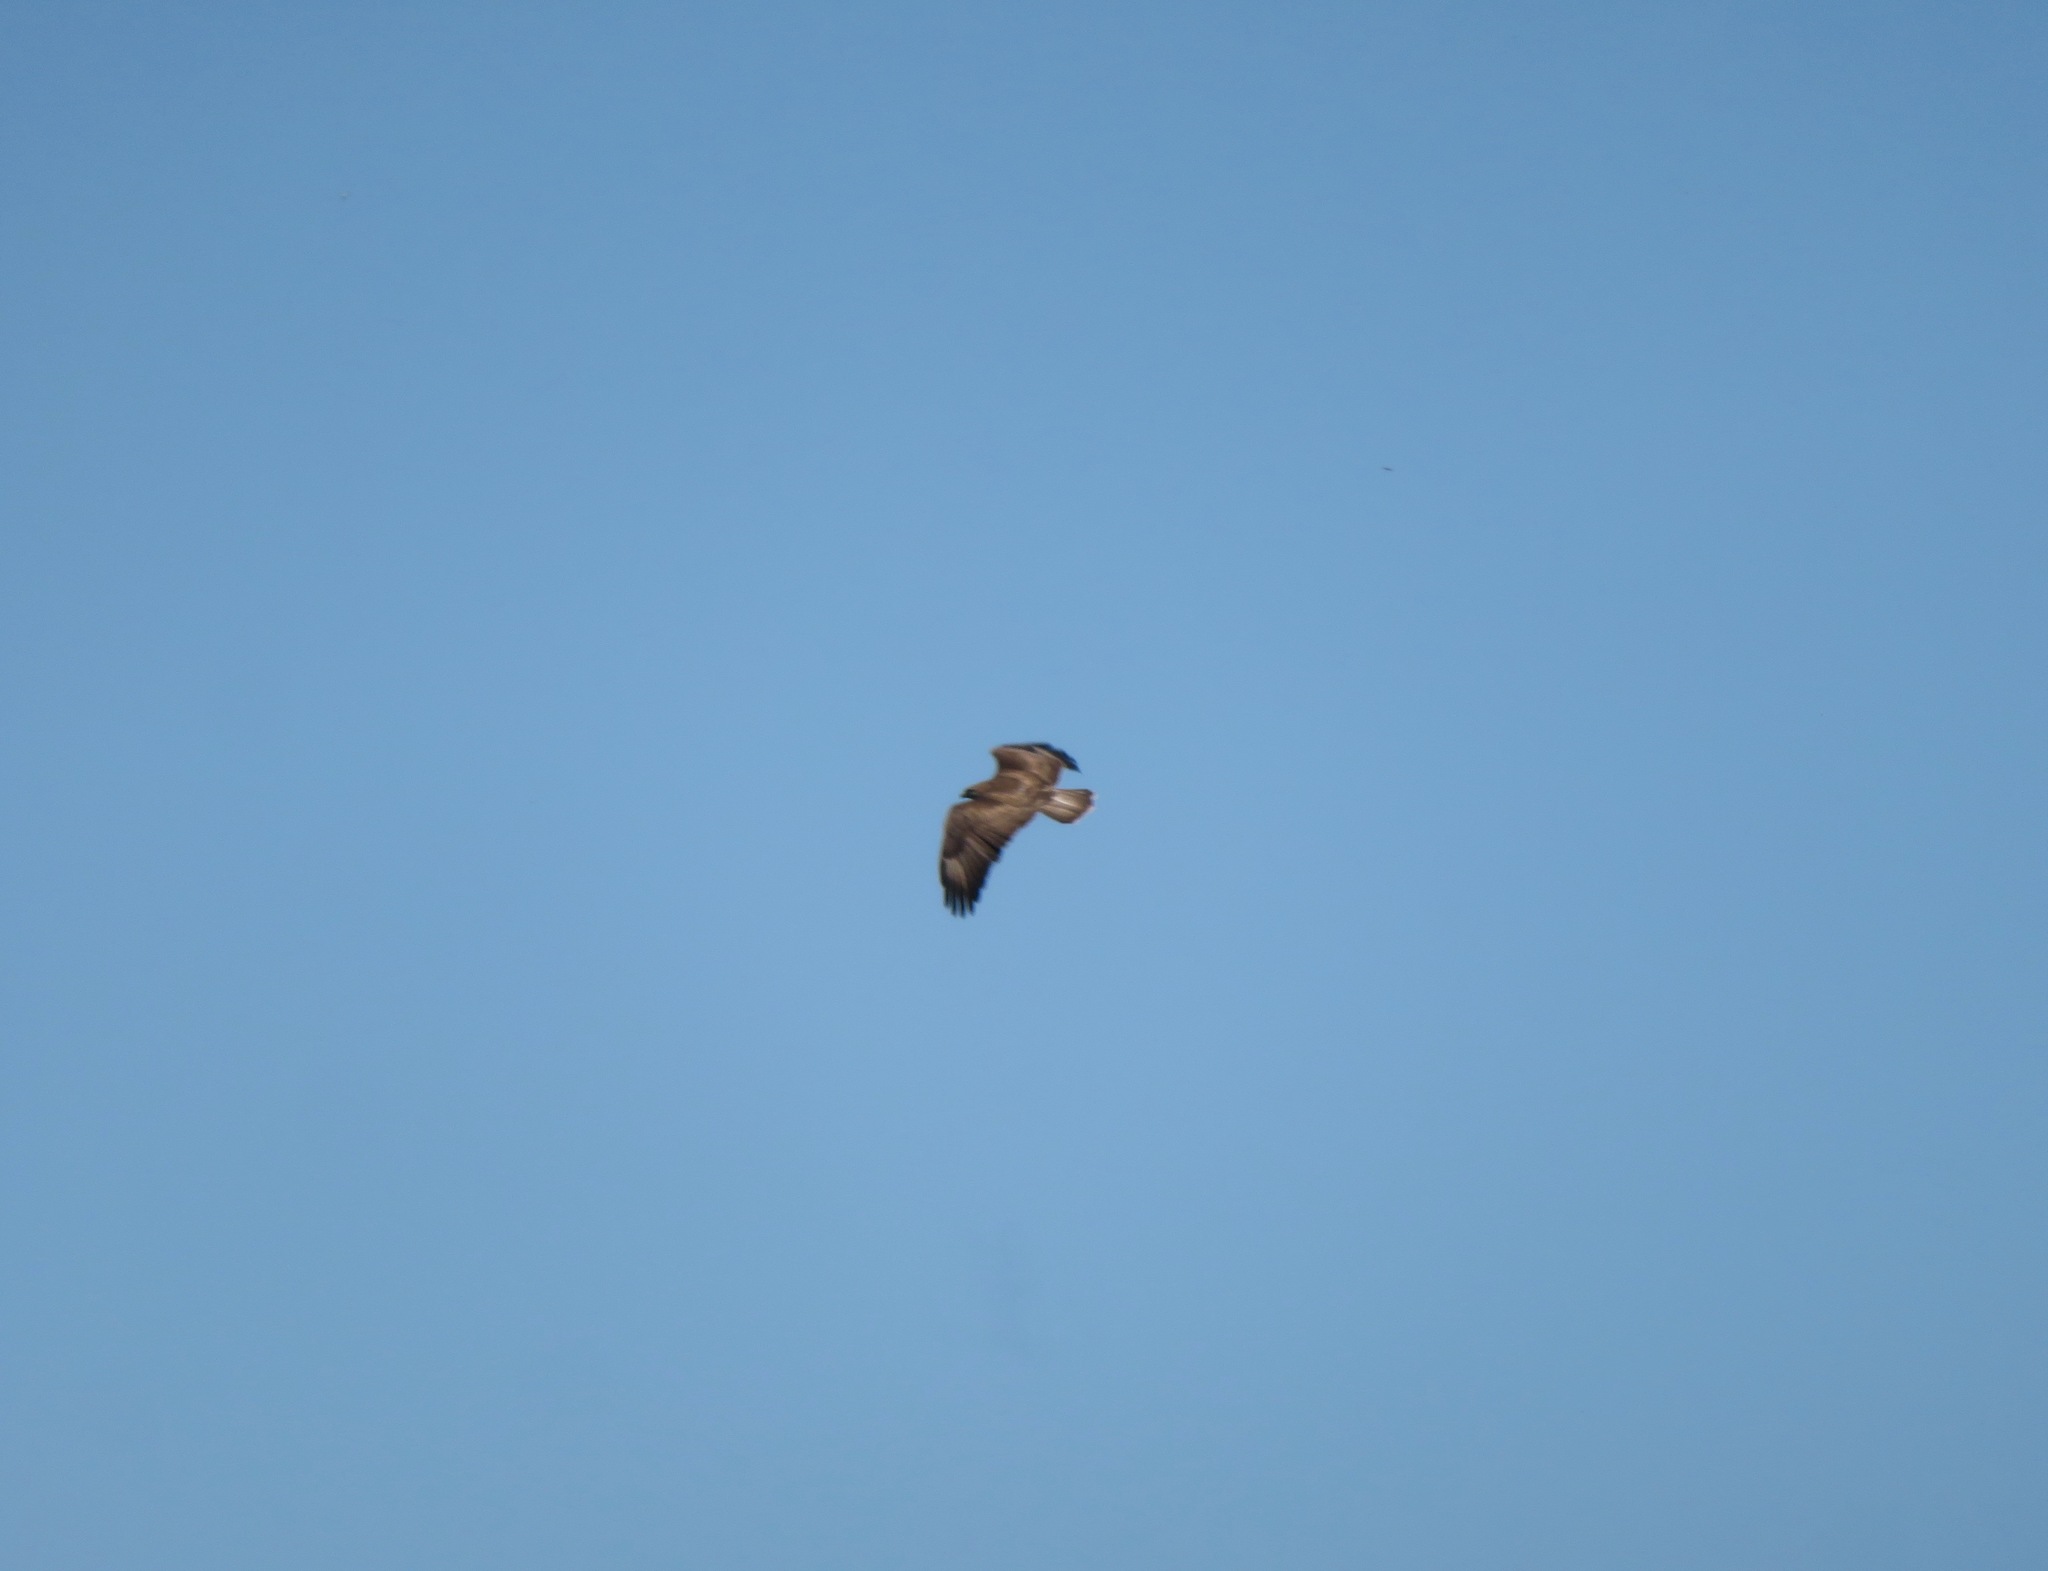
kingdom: Animalia
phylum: Chordata
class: Aves
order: Accipitriformes
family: Accipitridae
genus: Buteo
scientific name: Buteo buteo
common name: Common buzzard
